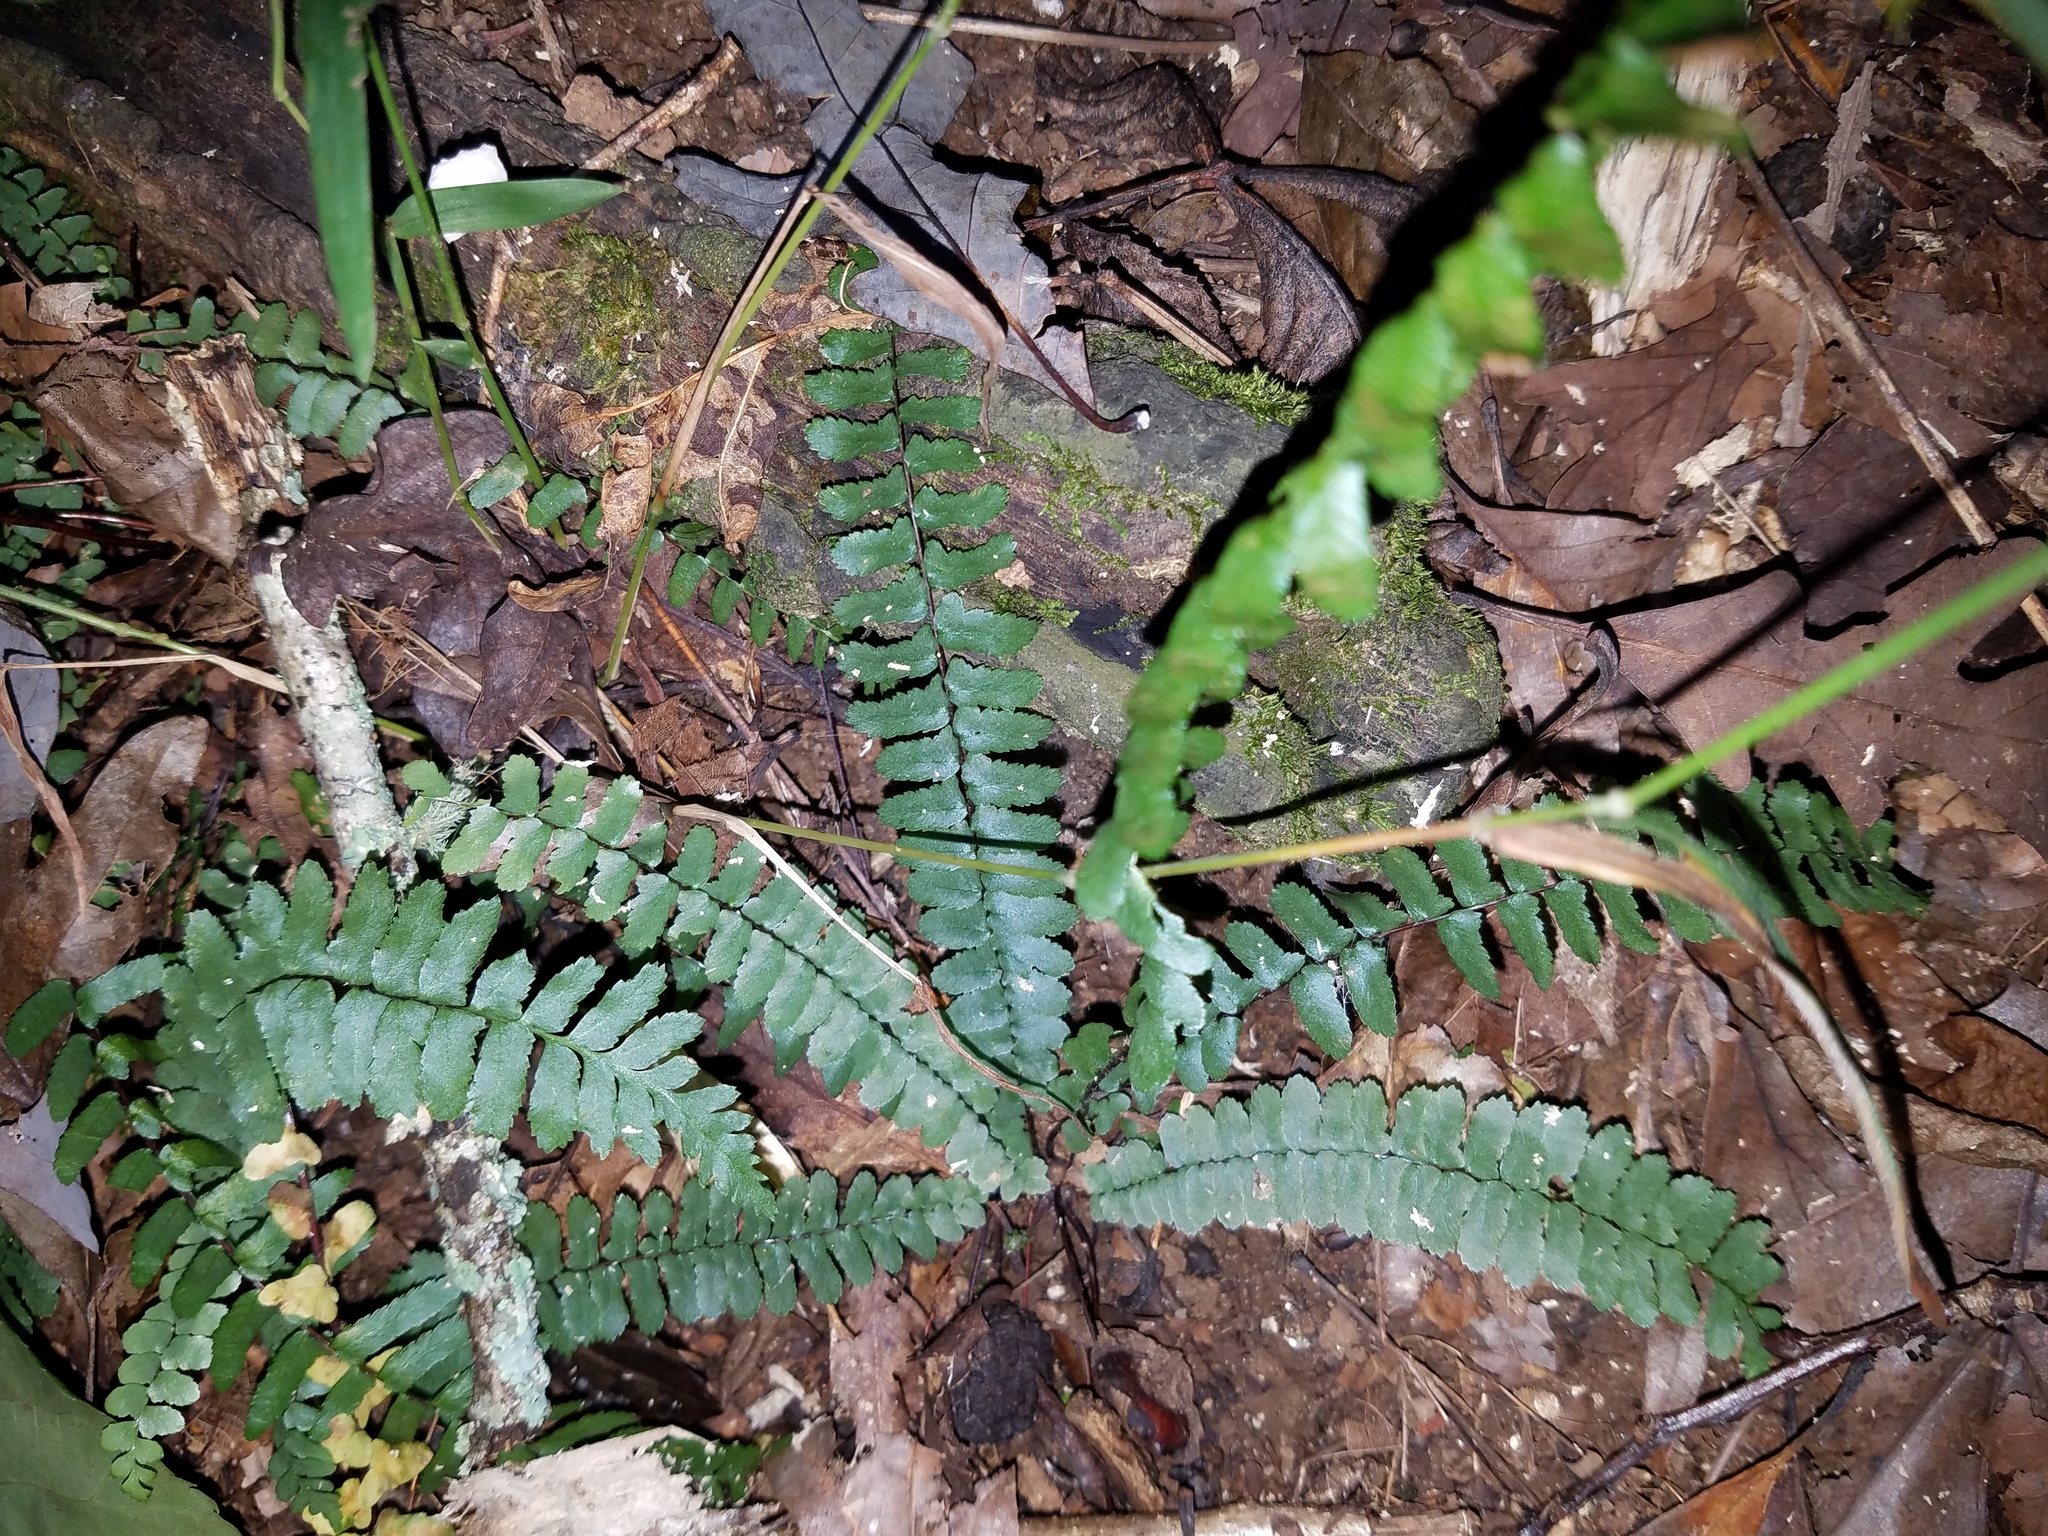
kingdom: Plantae
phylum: Tracheophyta
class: Polypodiopsida
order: Polypodiales
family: Aspleniaceae
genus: Asplenium
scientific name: Asplenium platyneuron
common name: Ebony spleenwort
